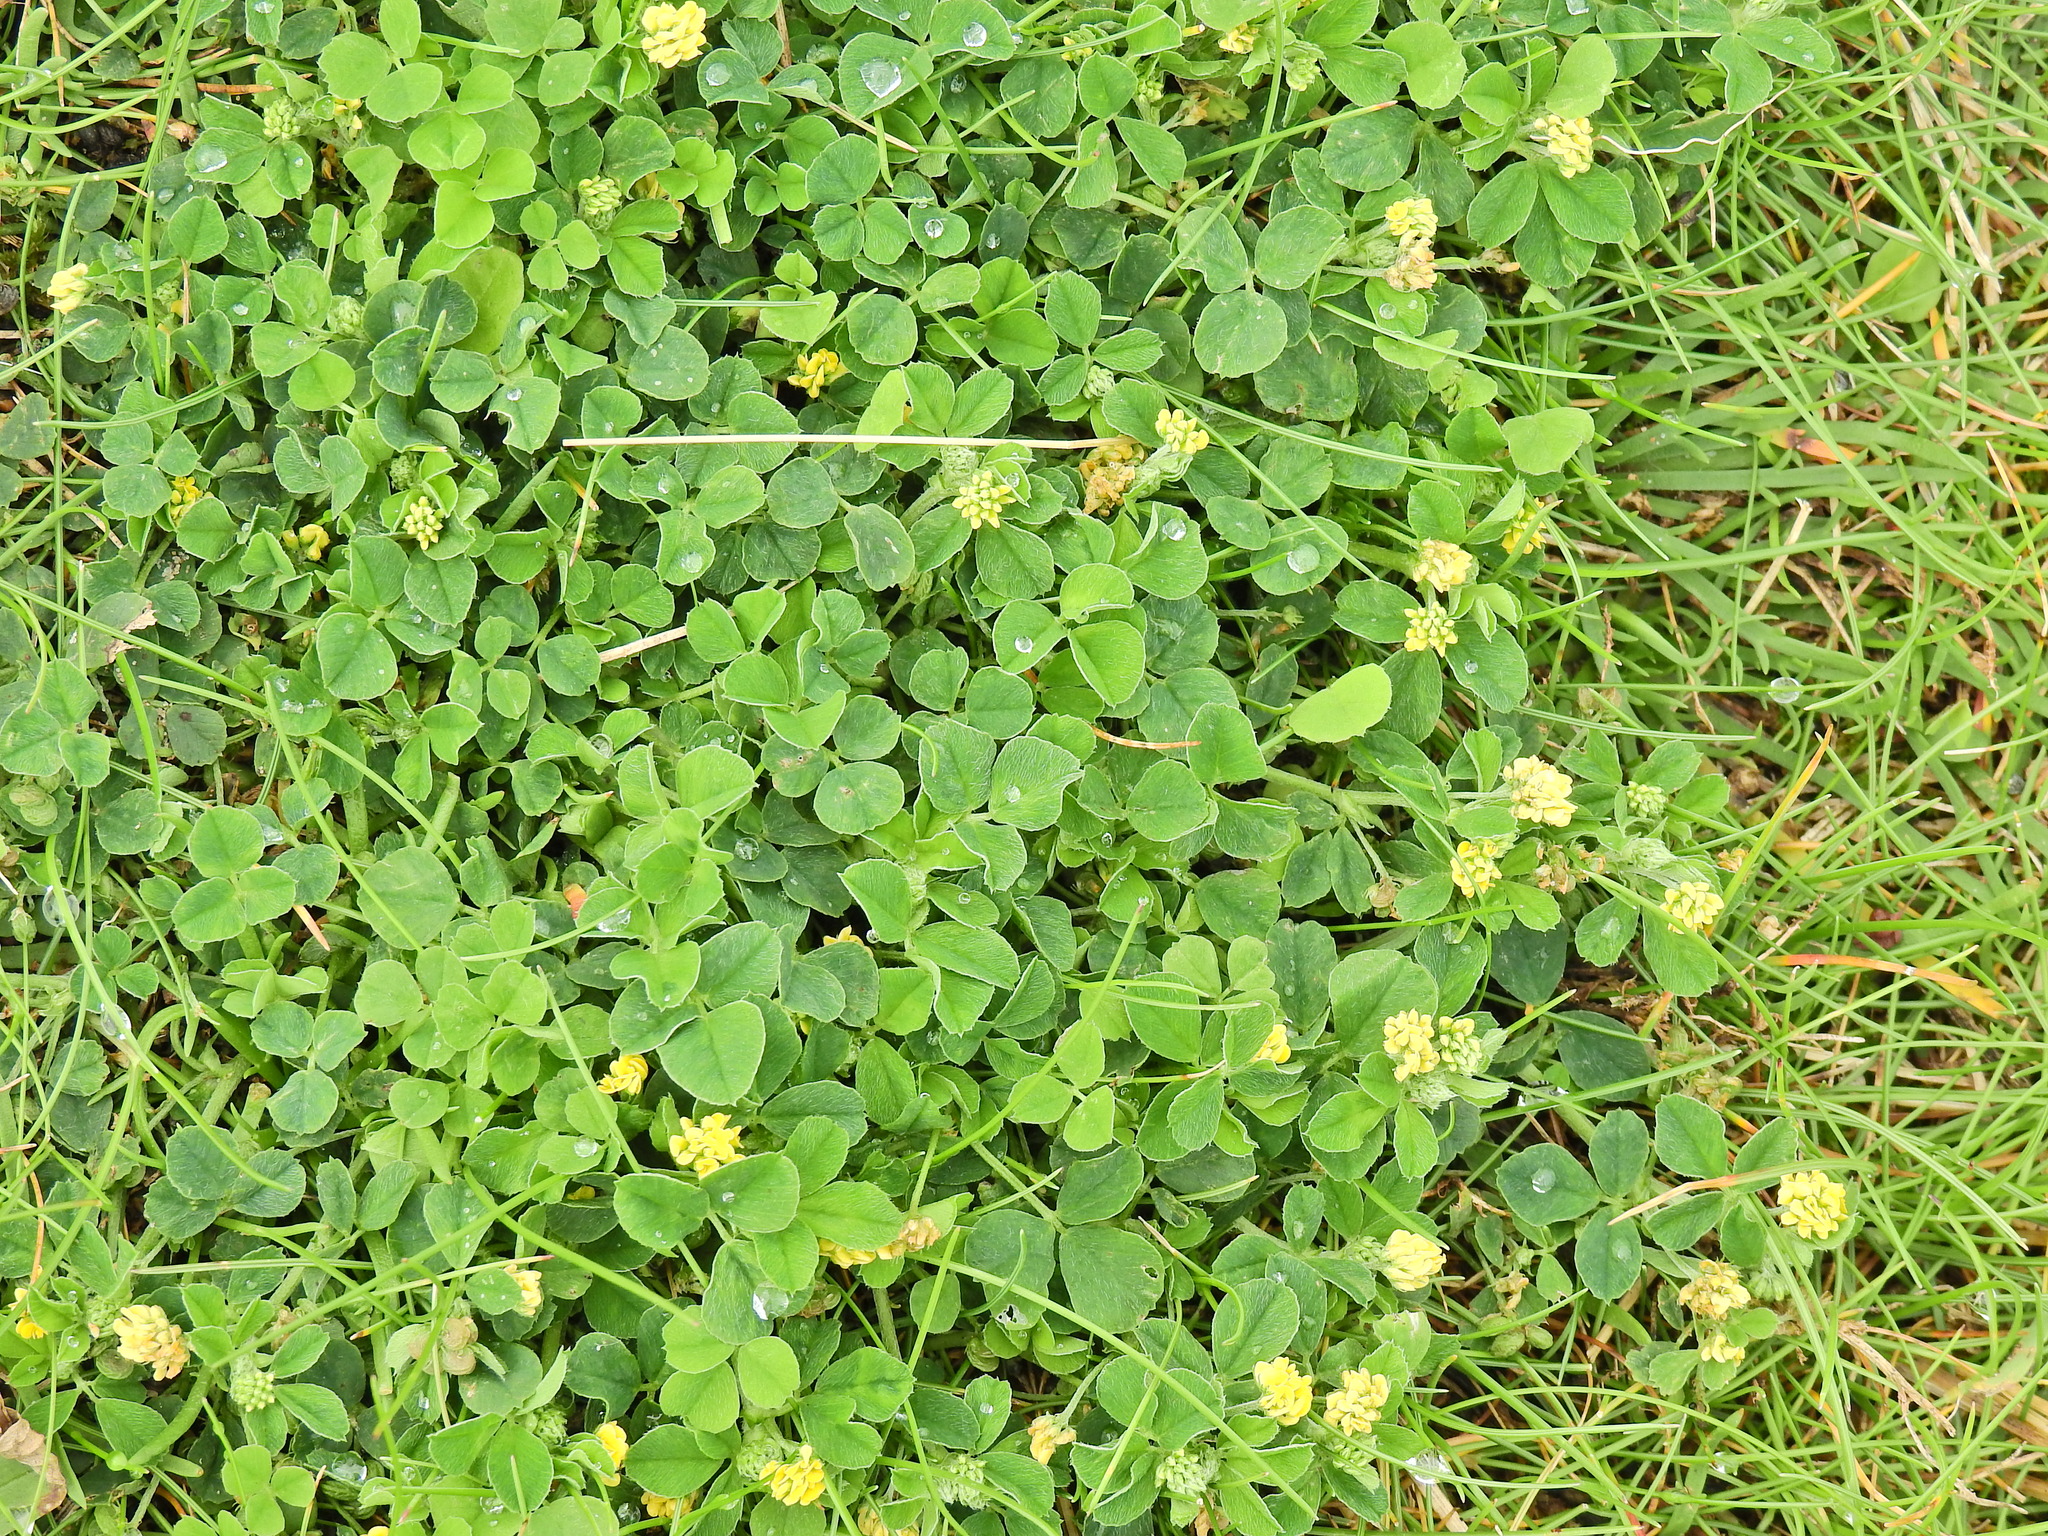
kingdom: Plantae
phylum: Tracheophyta
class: Magnoliopsida
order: Fabales
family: Fabaceae
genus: Medicago
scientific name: Medicago lupulina
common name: Black medick
